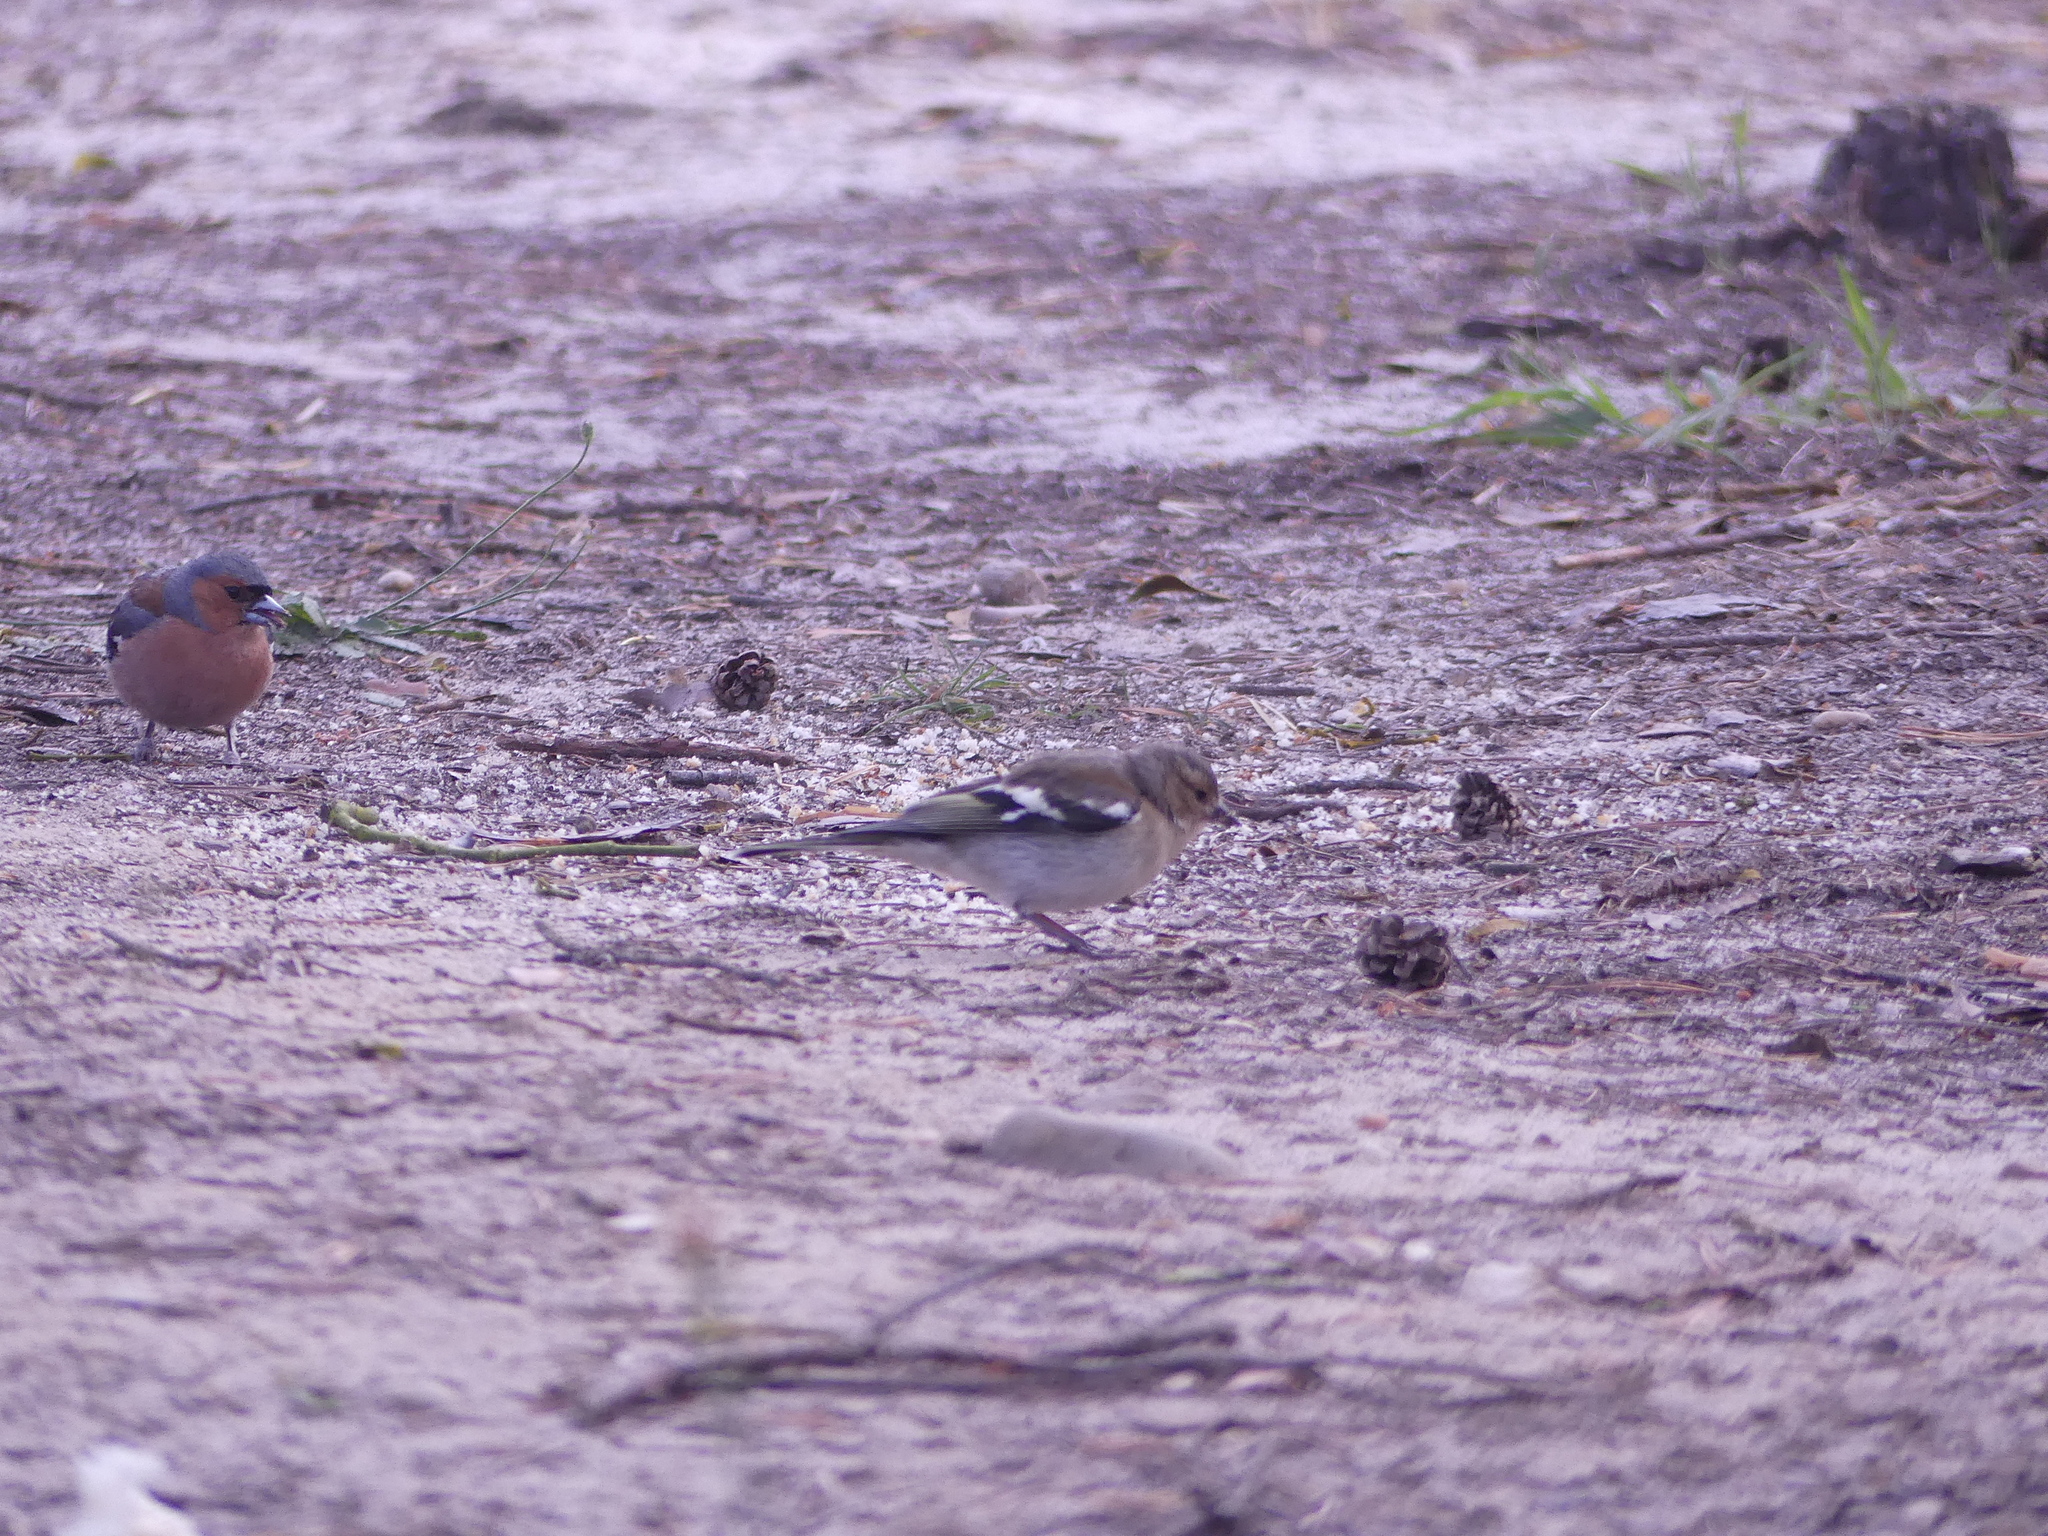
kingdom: Animalia
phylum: Chordata
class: Aves
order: Passeriformes
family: Fringillidae
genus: Fringilla
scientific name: Fringilla coelebs
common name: Common chaffinch
